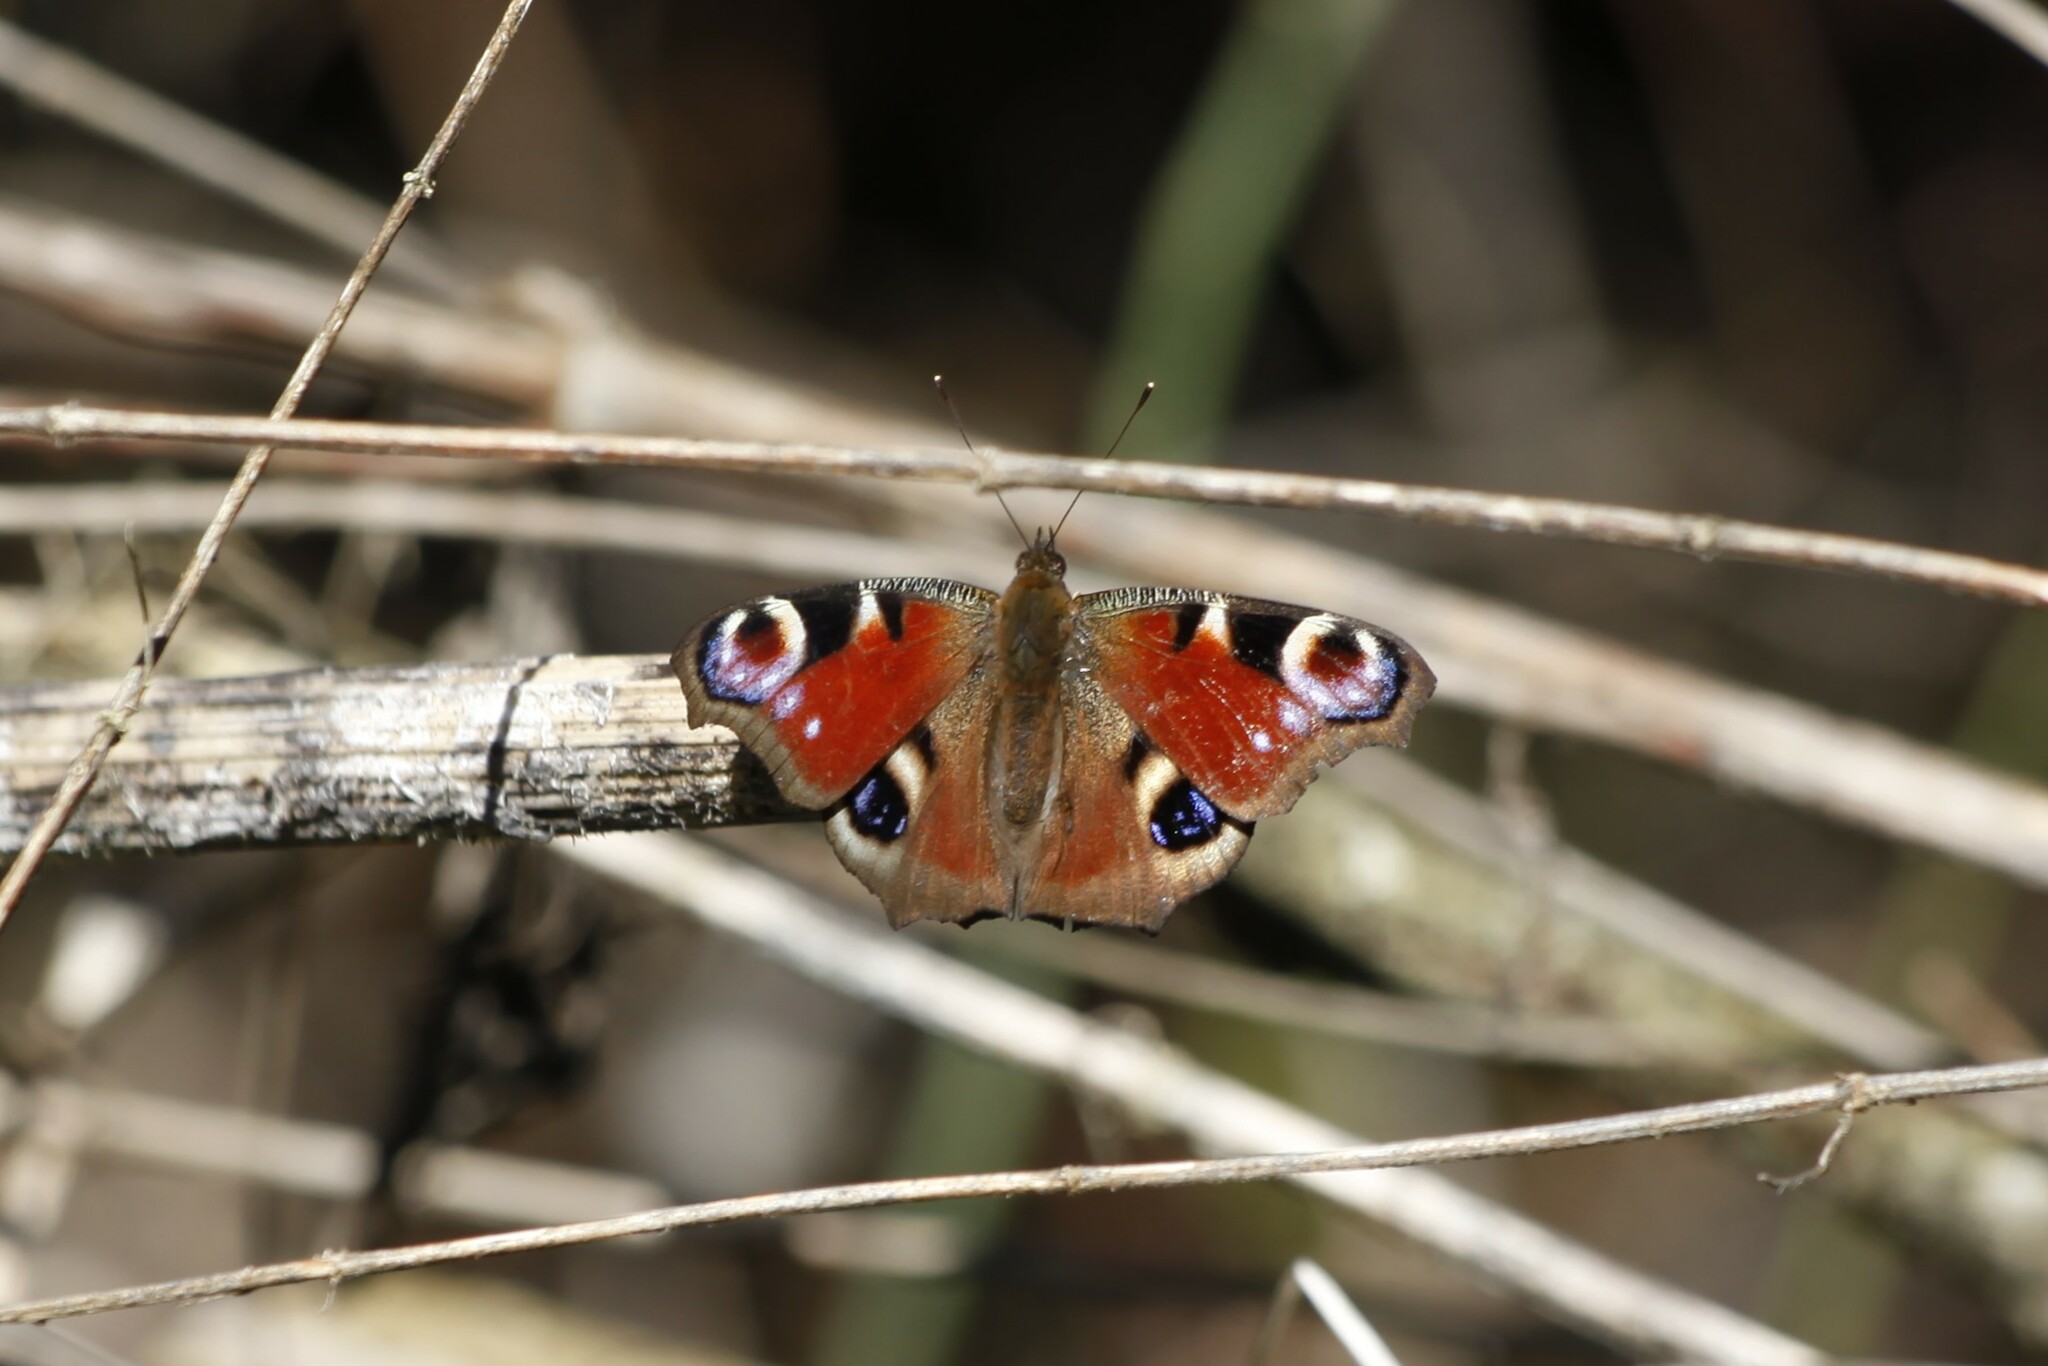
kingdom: Animalia
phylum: Arthropoda
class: Insecta
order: Lepidoptera
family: Nymphalidae
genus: Aglais
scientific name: Aglais io
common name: Peacock
